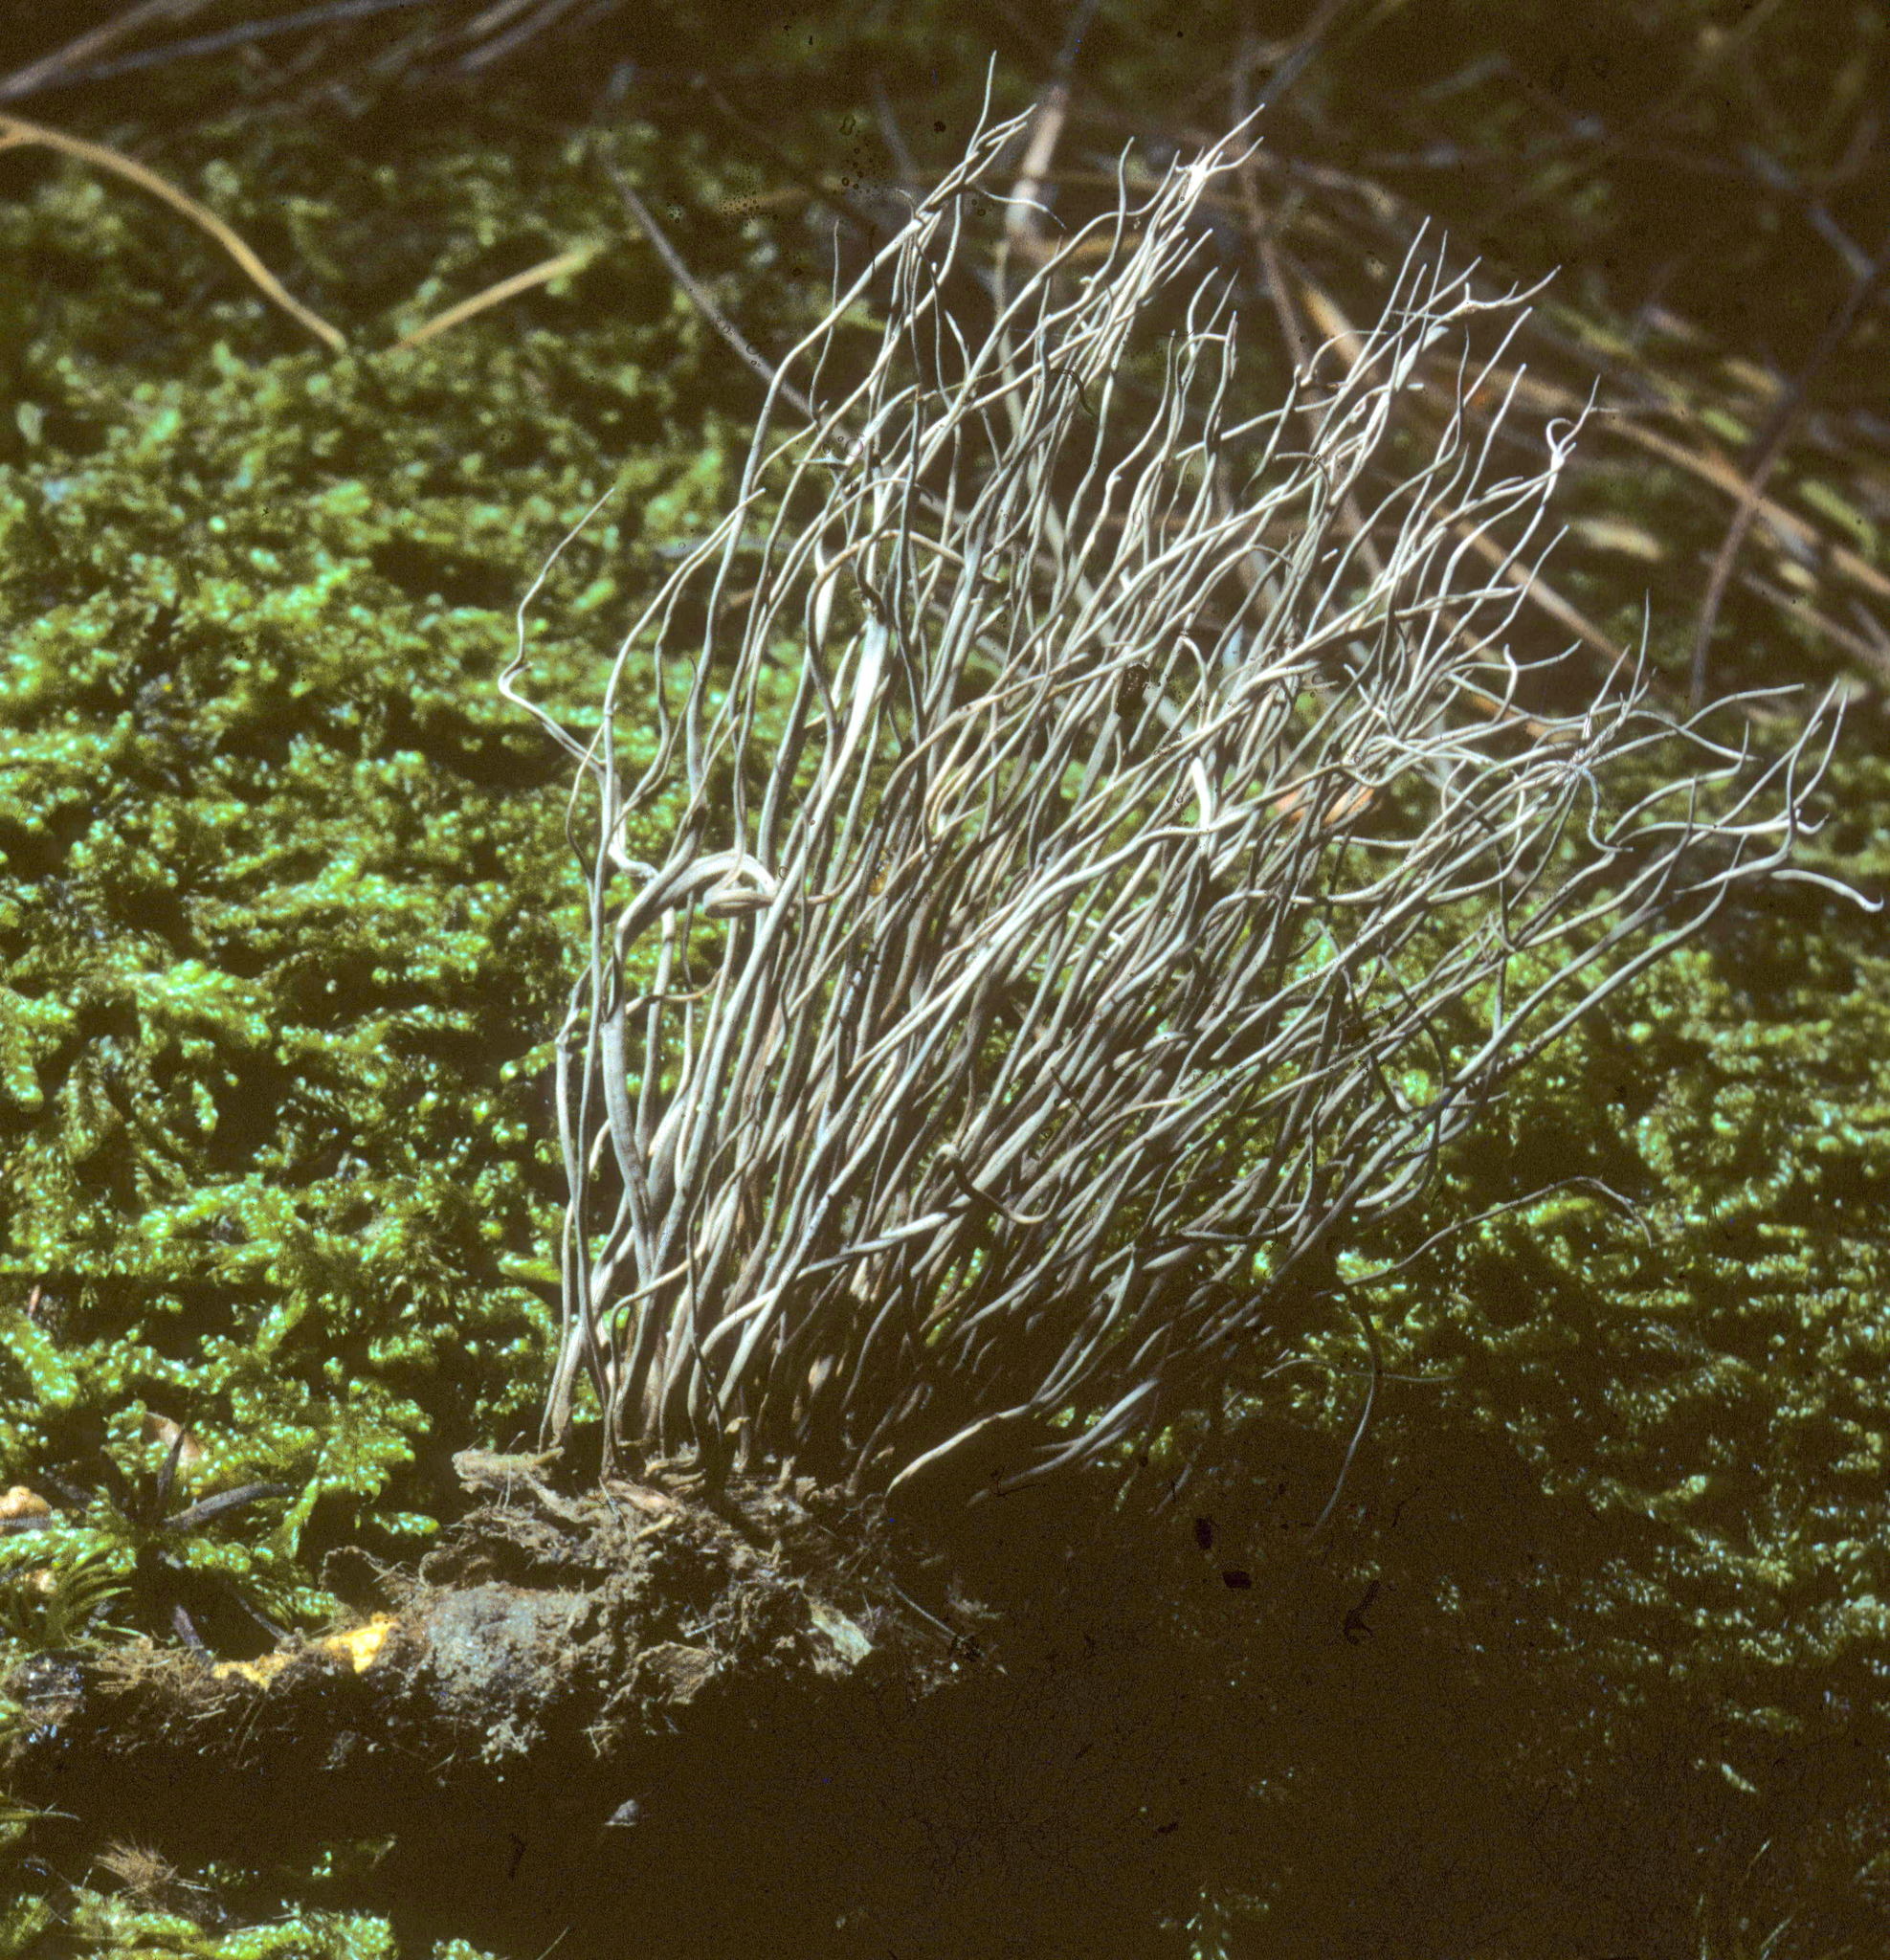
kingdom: Fungi
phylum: Ascomycota
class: Sordariomycetes
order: Hypocreales
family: Ophiocordycipitaceae
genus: Ophiocordyceps
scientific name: Ophiocordyceps stylophora
